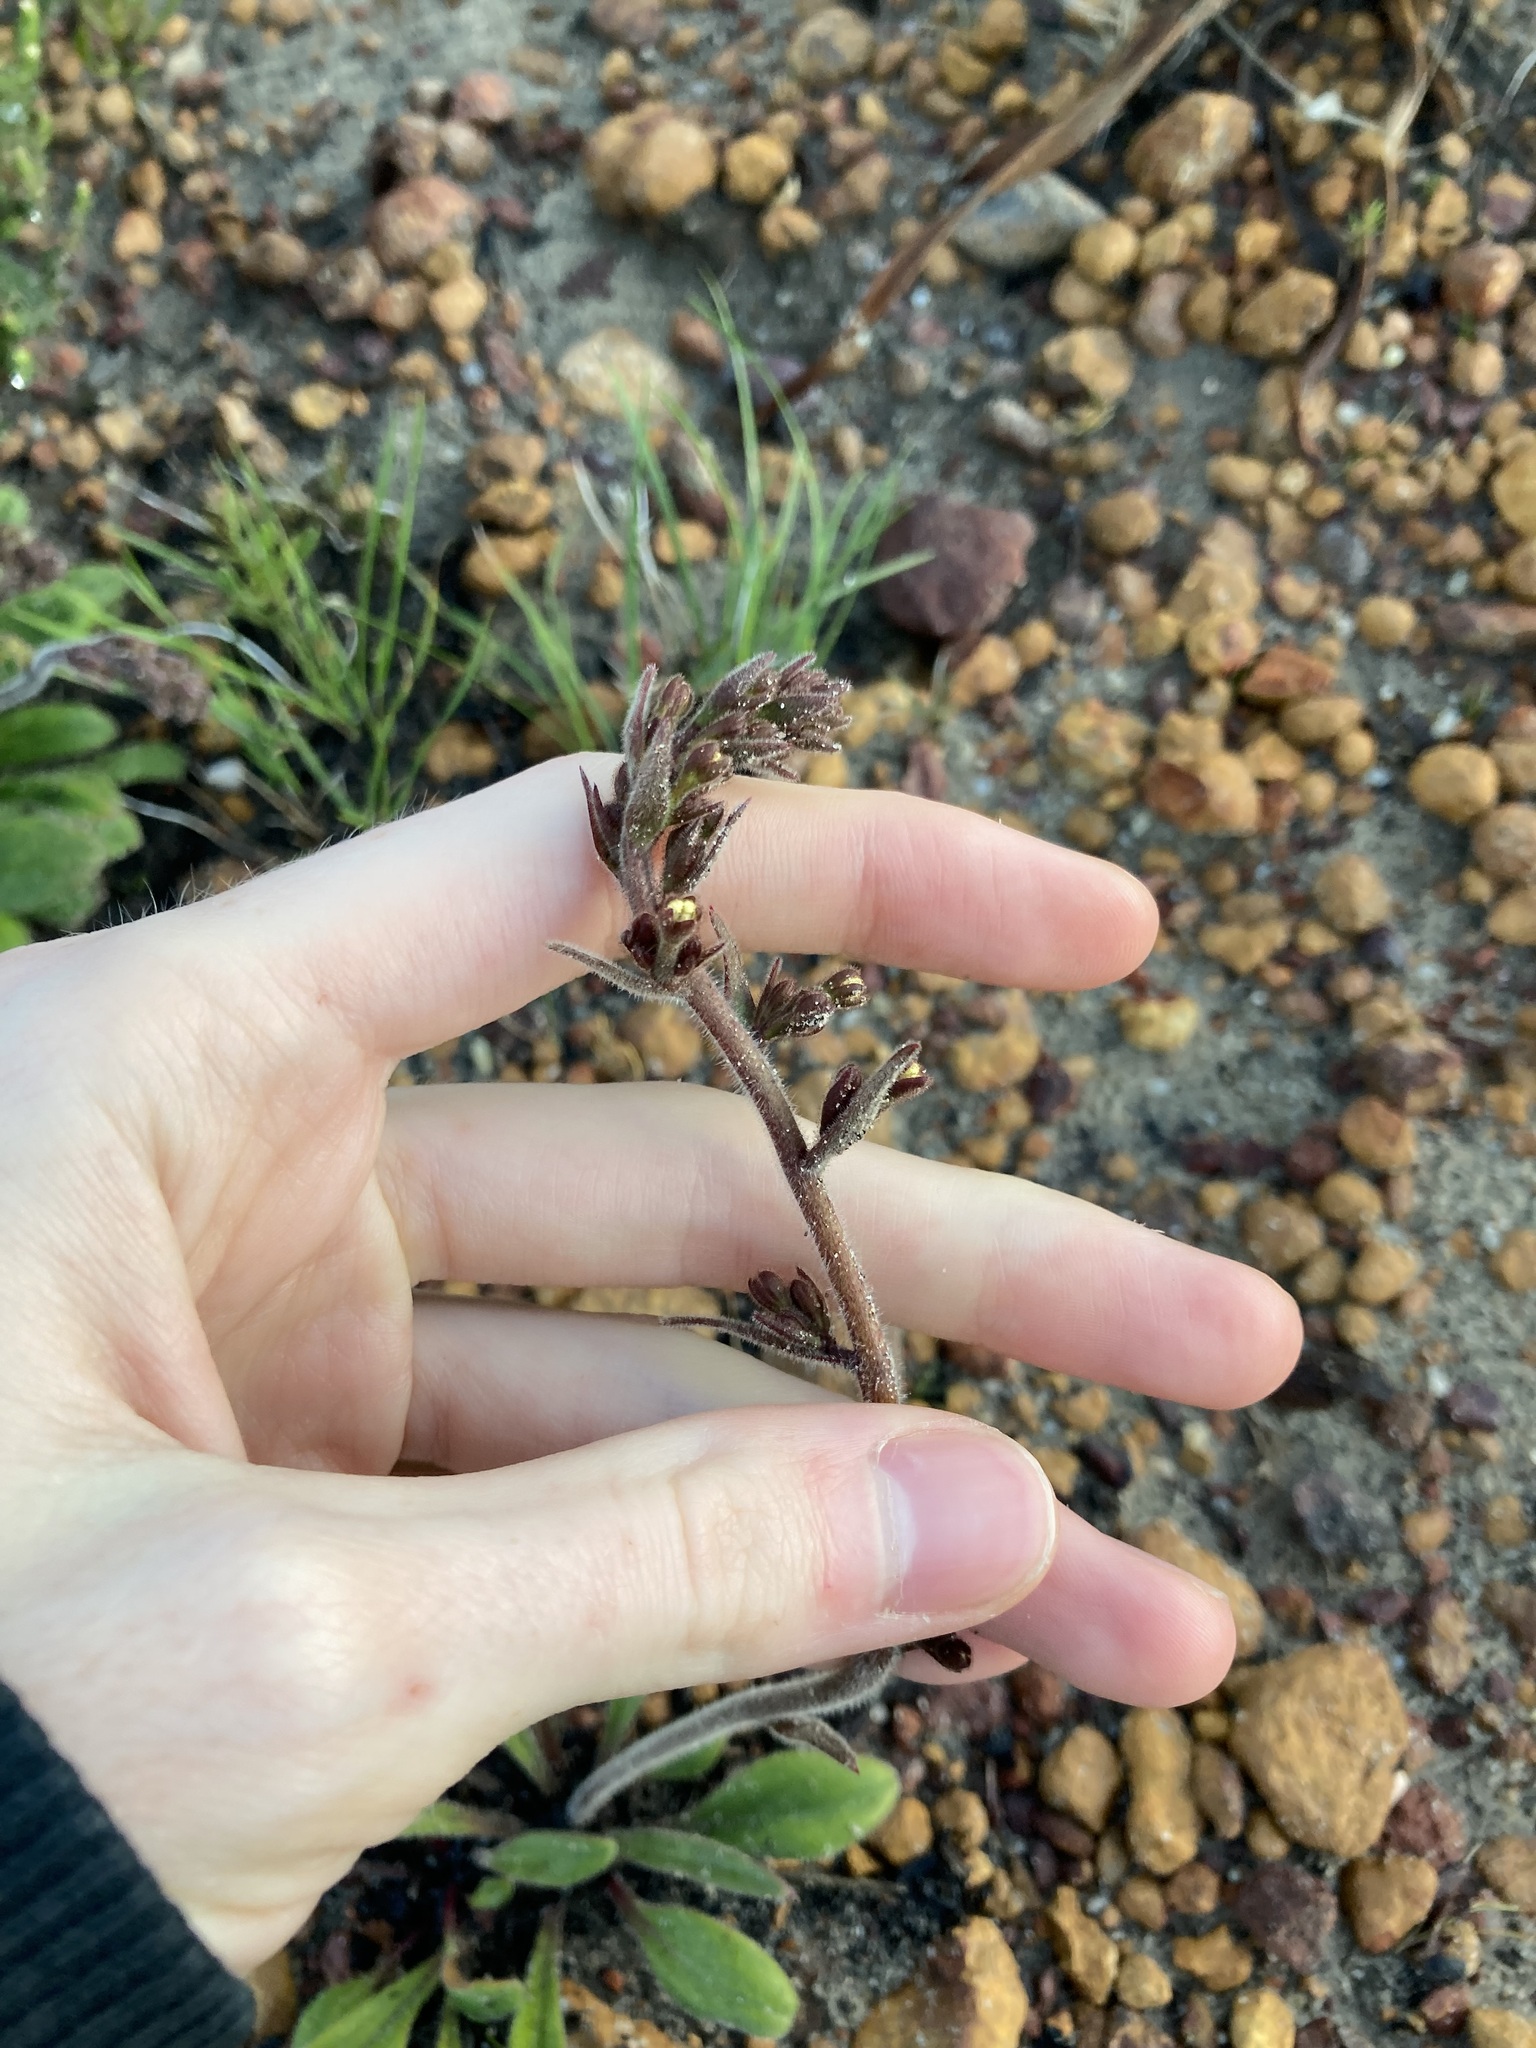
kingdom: Plantae
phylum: Tracheophyta
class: Magnoliopsida
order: Asterales
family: Stylidiaceae
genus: Stylidium
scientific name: Stylidium pycnostachyum
